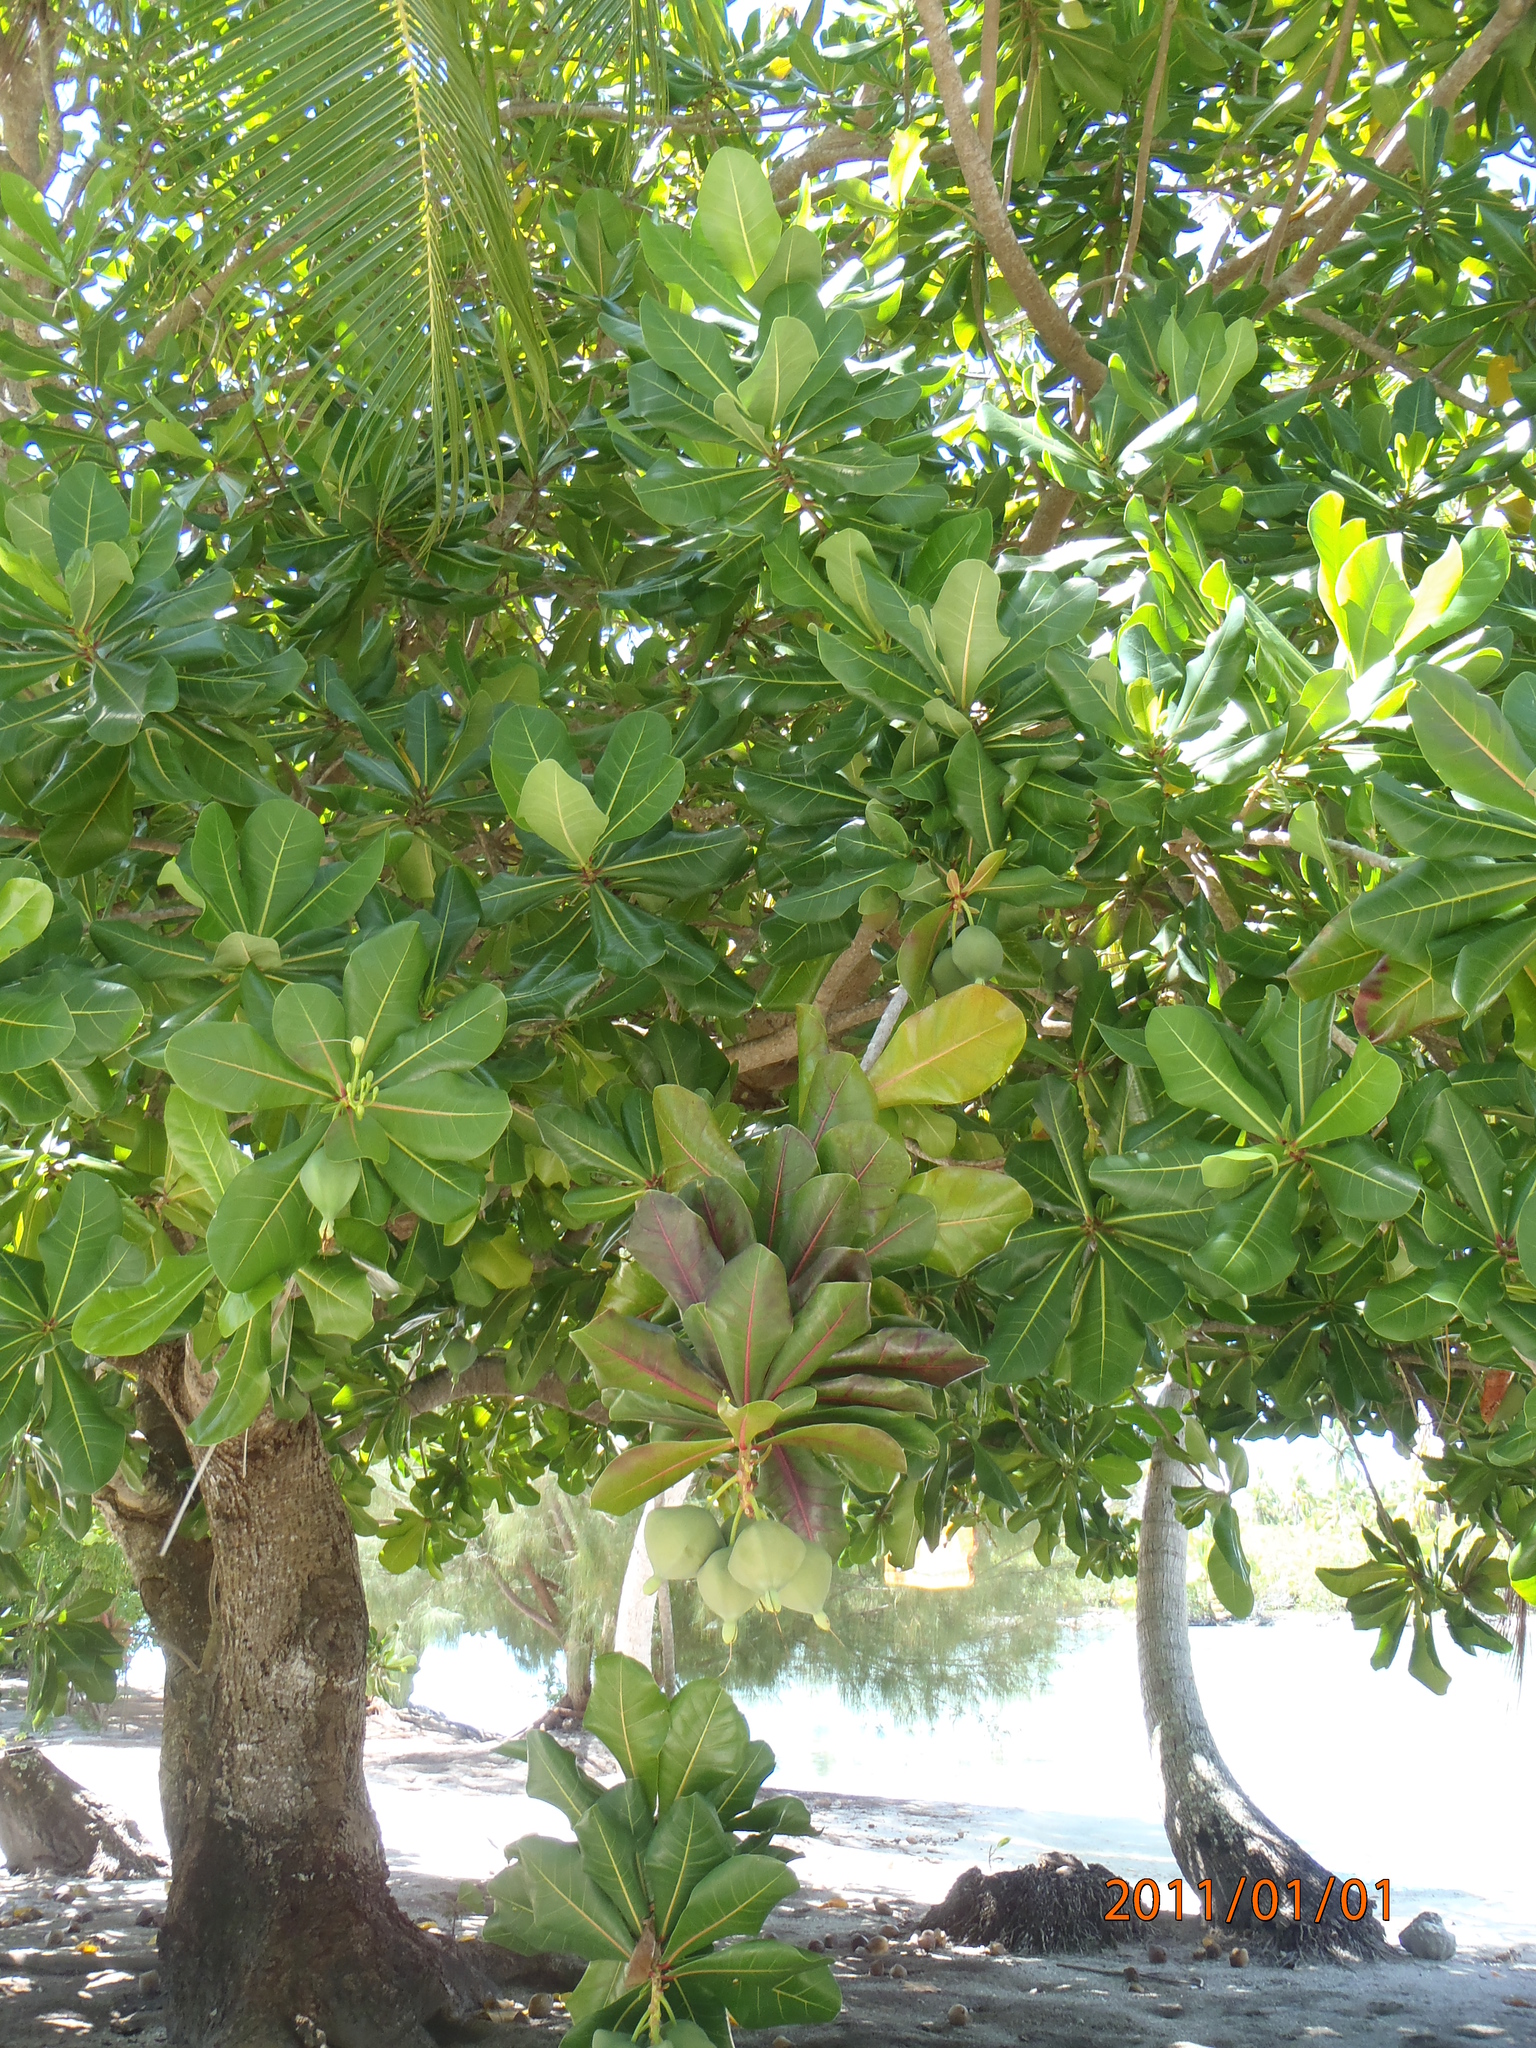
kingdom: Plantae
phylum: Tracheophyta
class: Magnoliopsida
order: Ericales
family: Lecythidaceae
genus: Barringtonia
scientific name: Barringtonia asiatica
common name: Mango-pine
